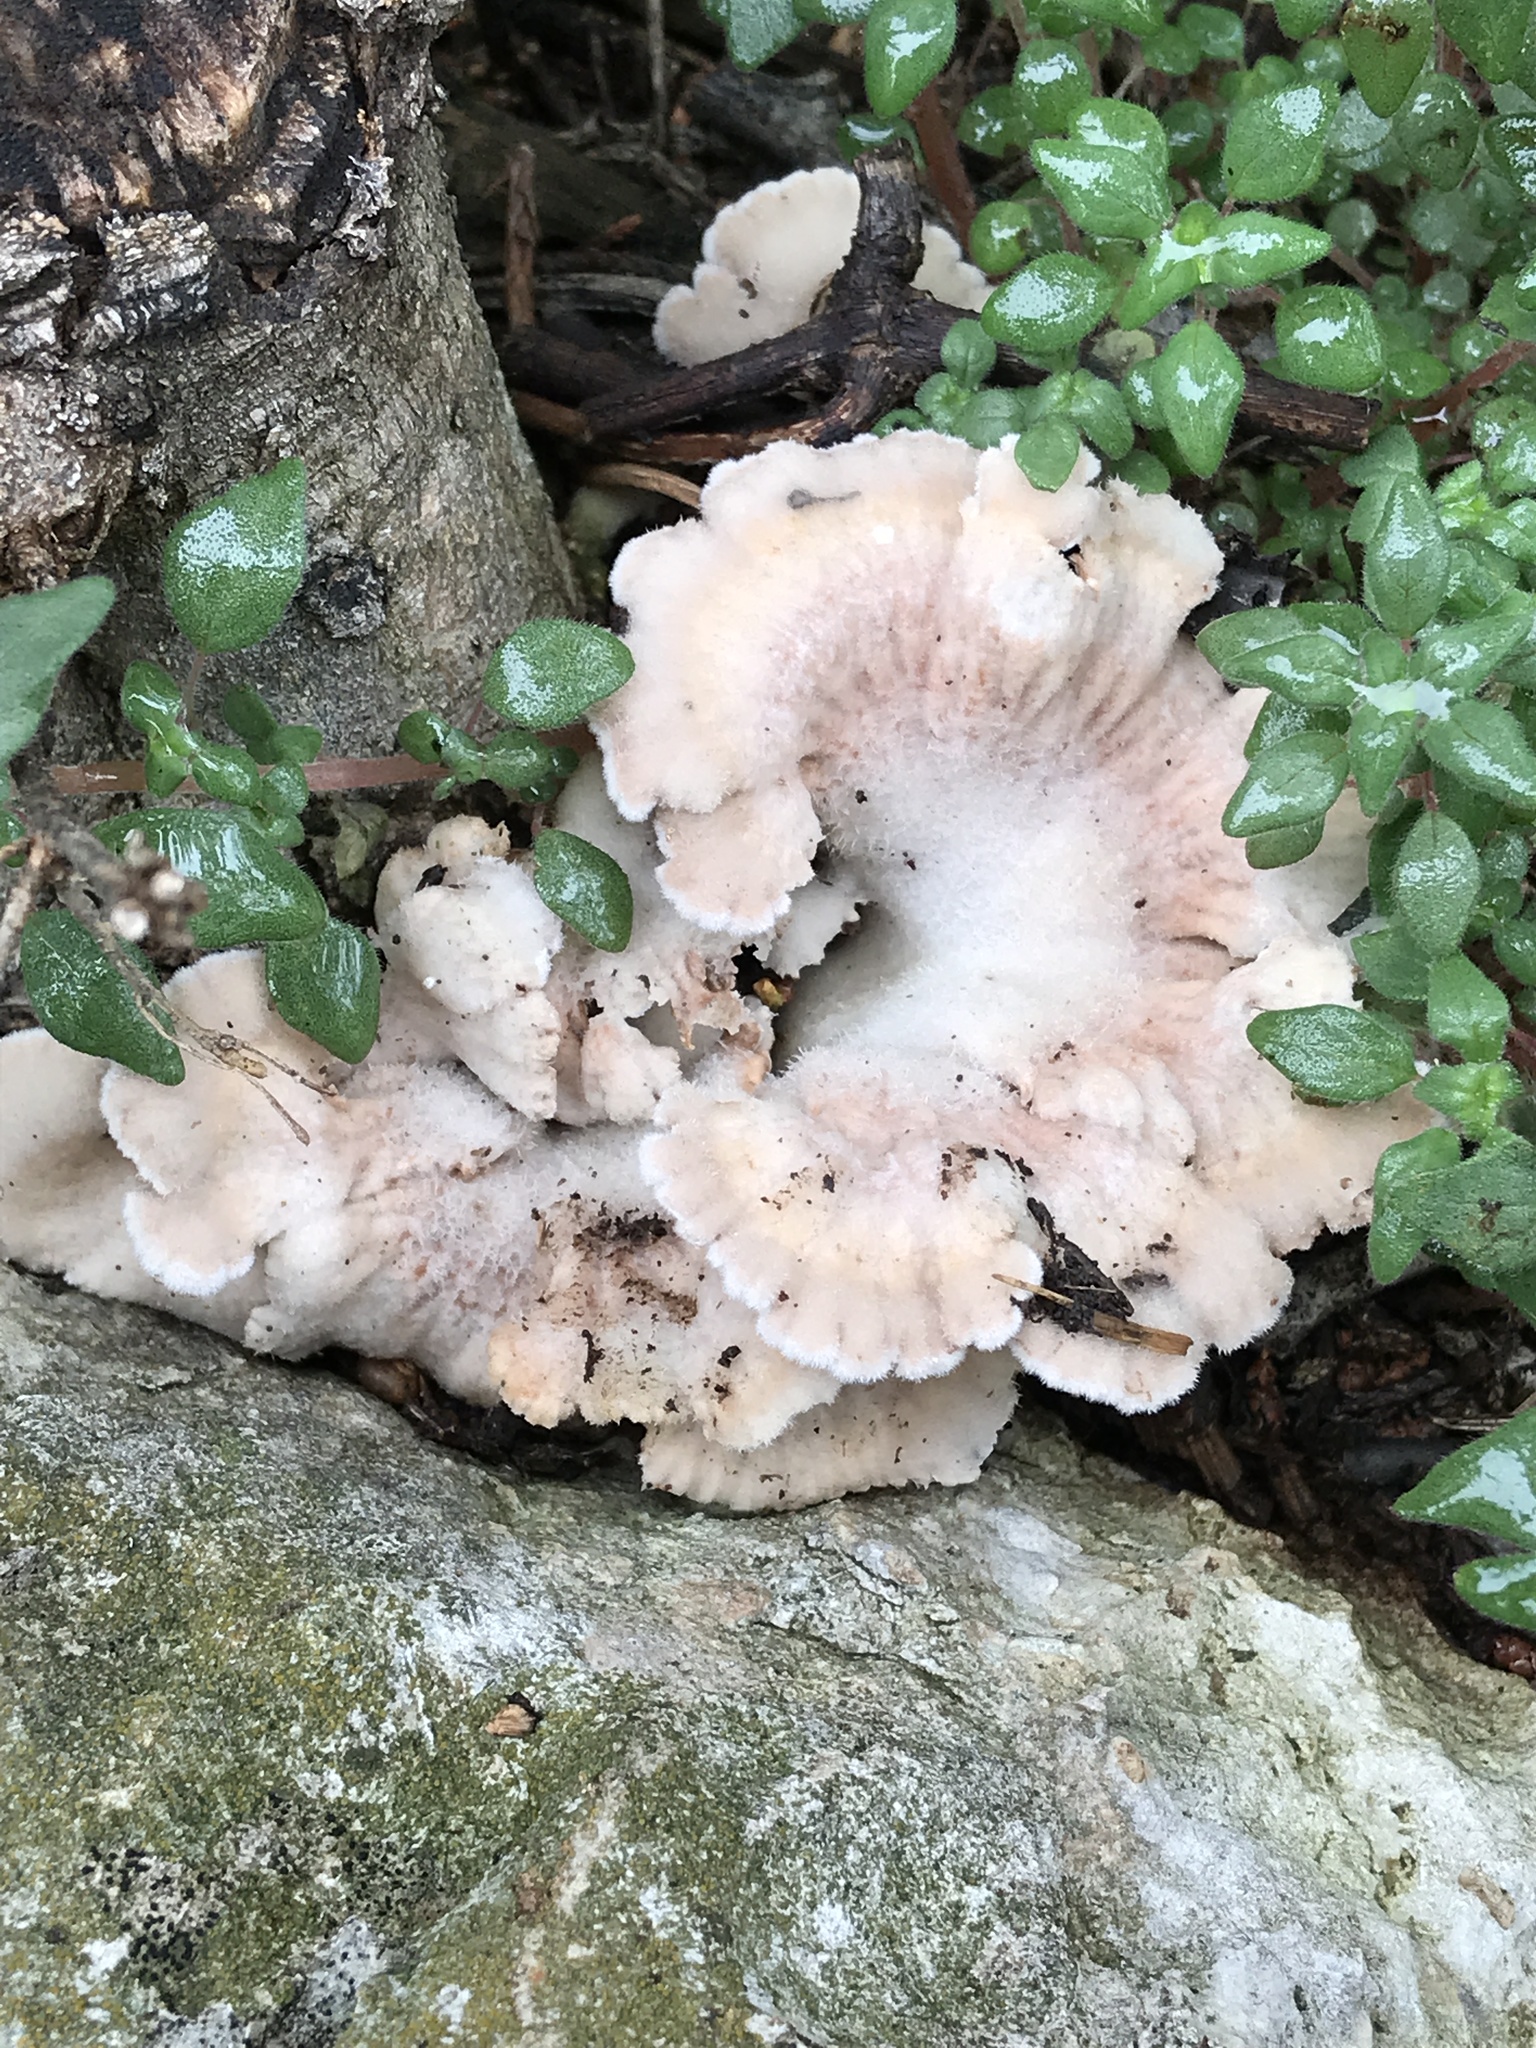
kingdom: Fungi
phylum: Basidiomycota
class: Agaricomycetes
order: Agaricales
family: Schizophyllaceae
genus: Schizophyllum
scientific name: Schizophyllum commune
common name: Common porecrust
